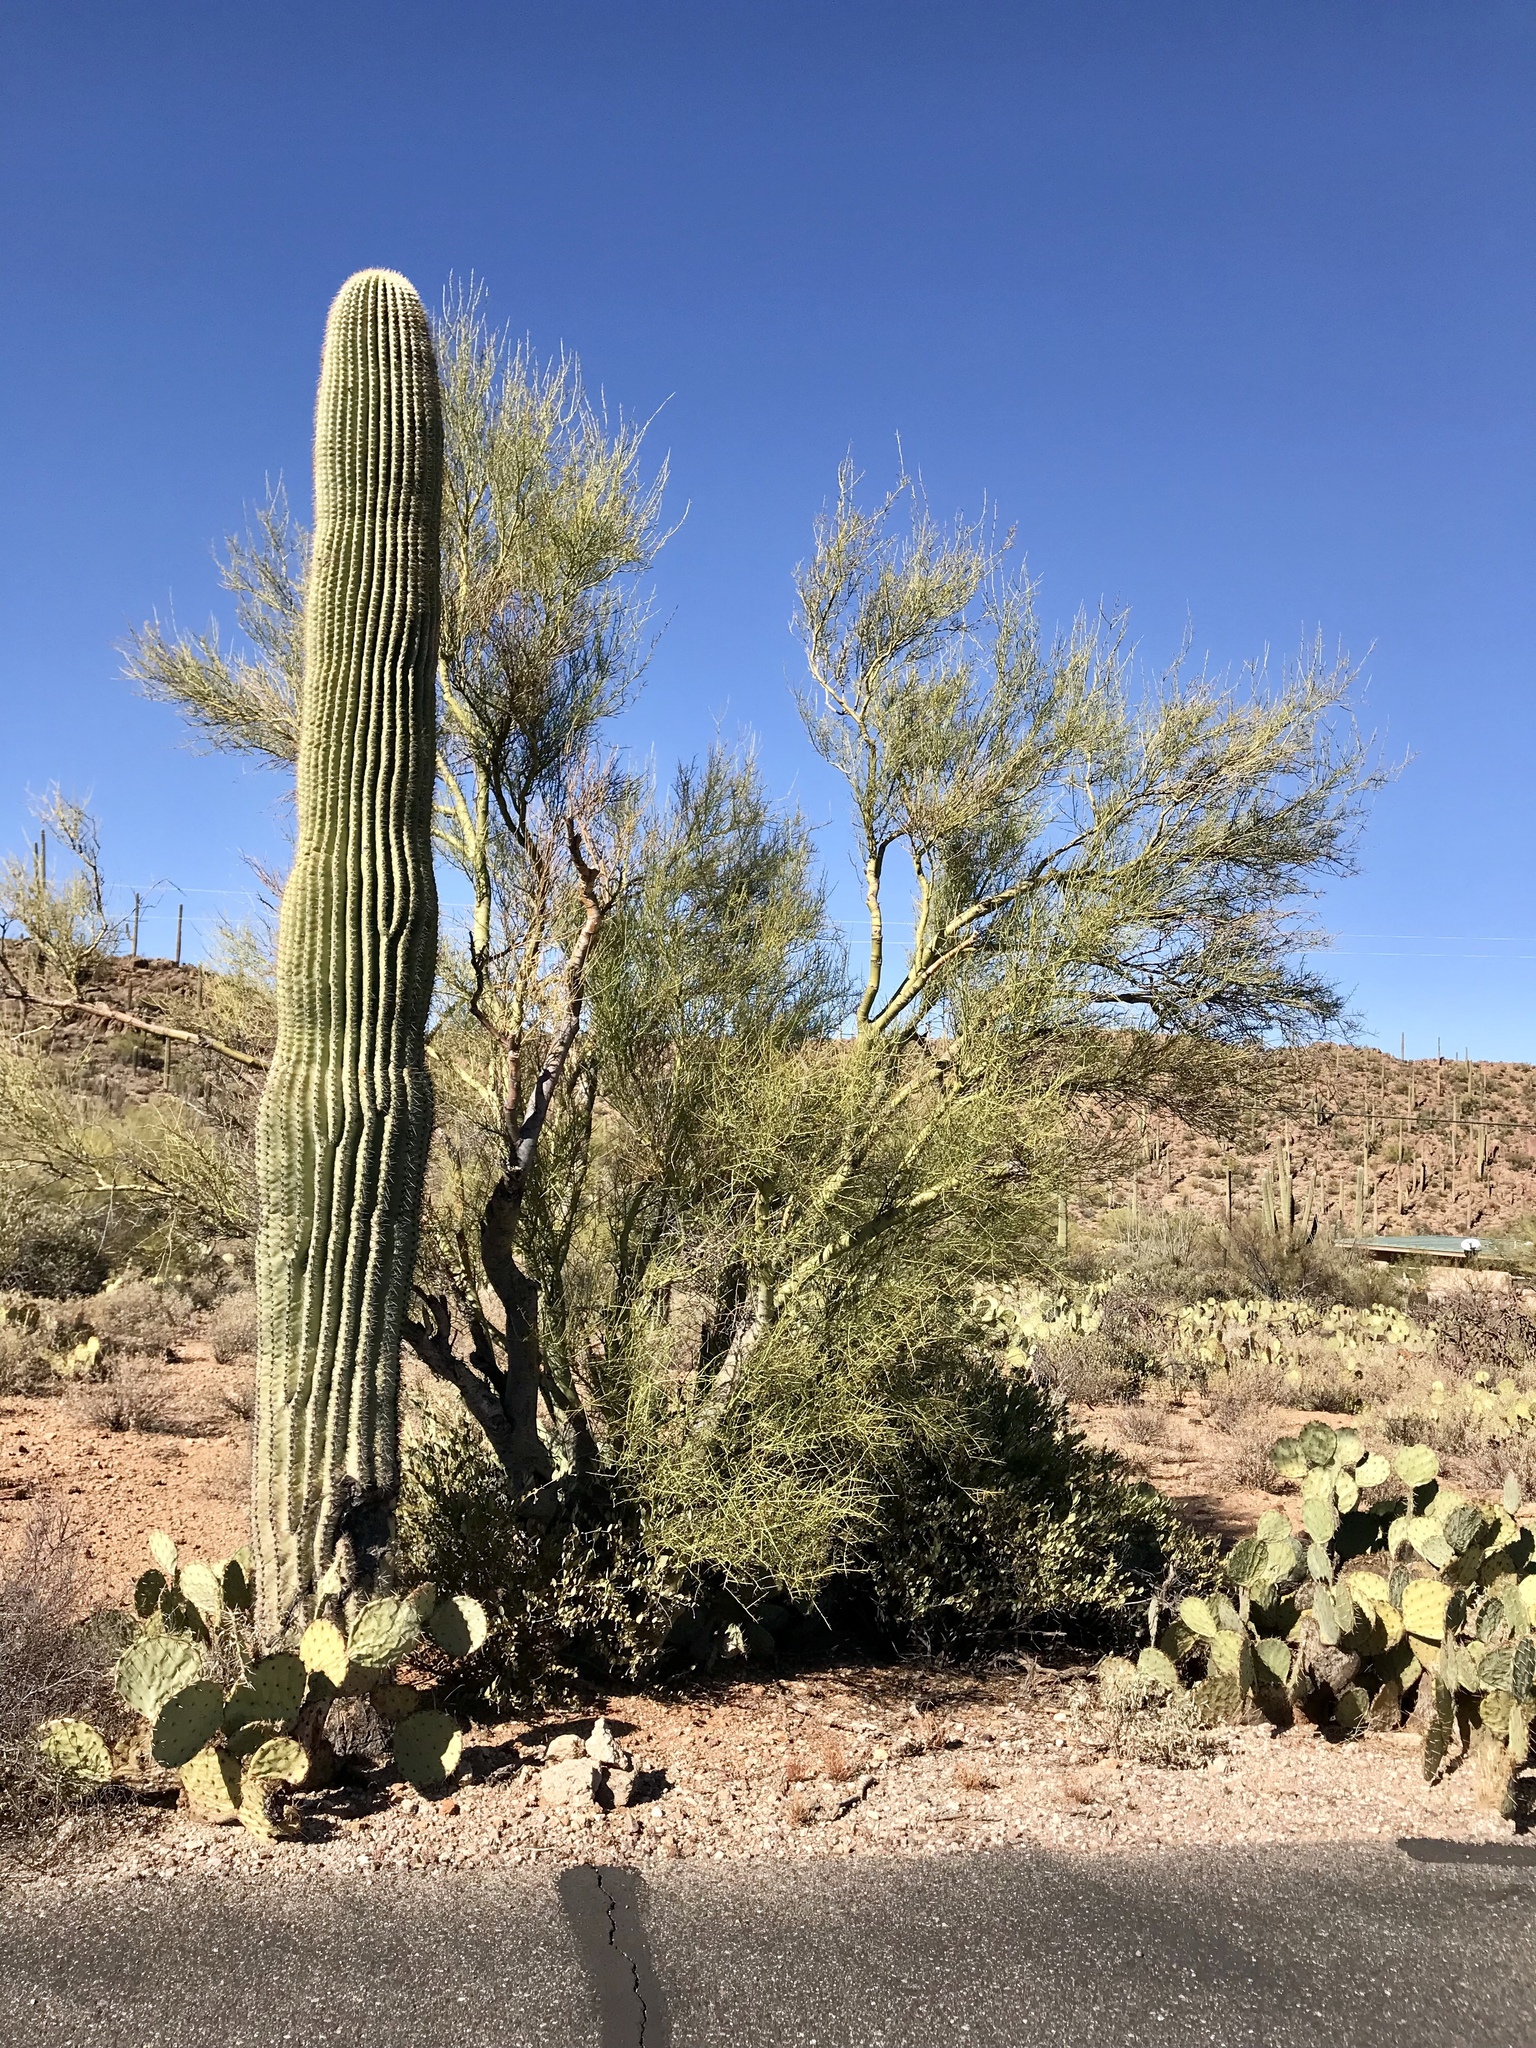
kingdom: Plantae
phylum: Tracheophyta
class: Magnoliopsida
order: Fabales
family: Fabaceae
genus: Parkinsonia
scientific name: Parkinsonia florida
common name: Blue paloverde
